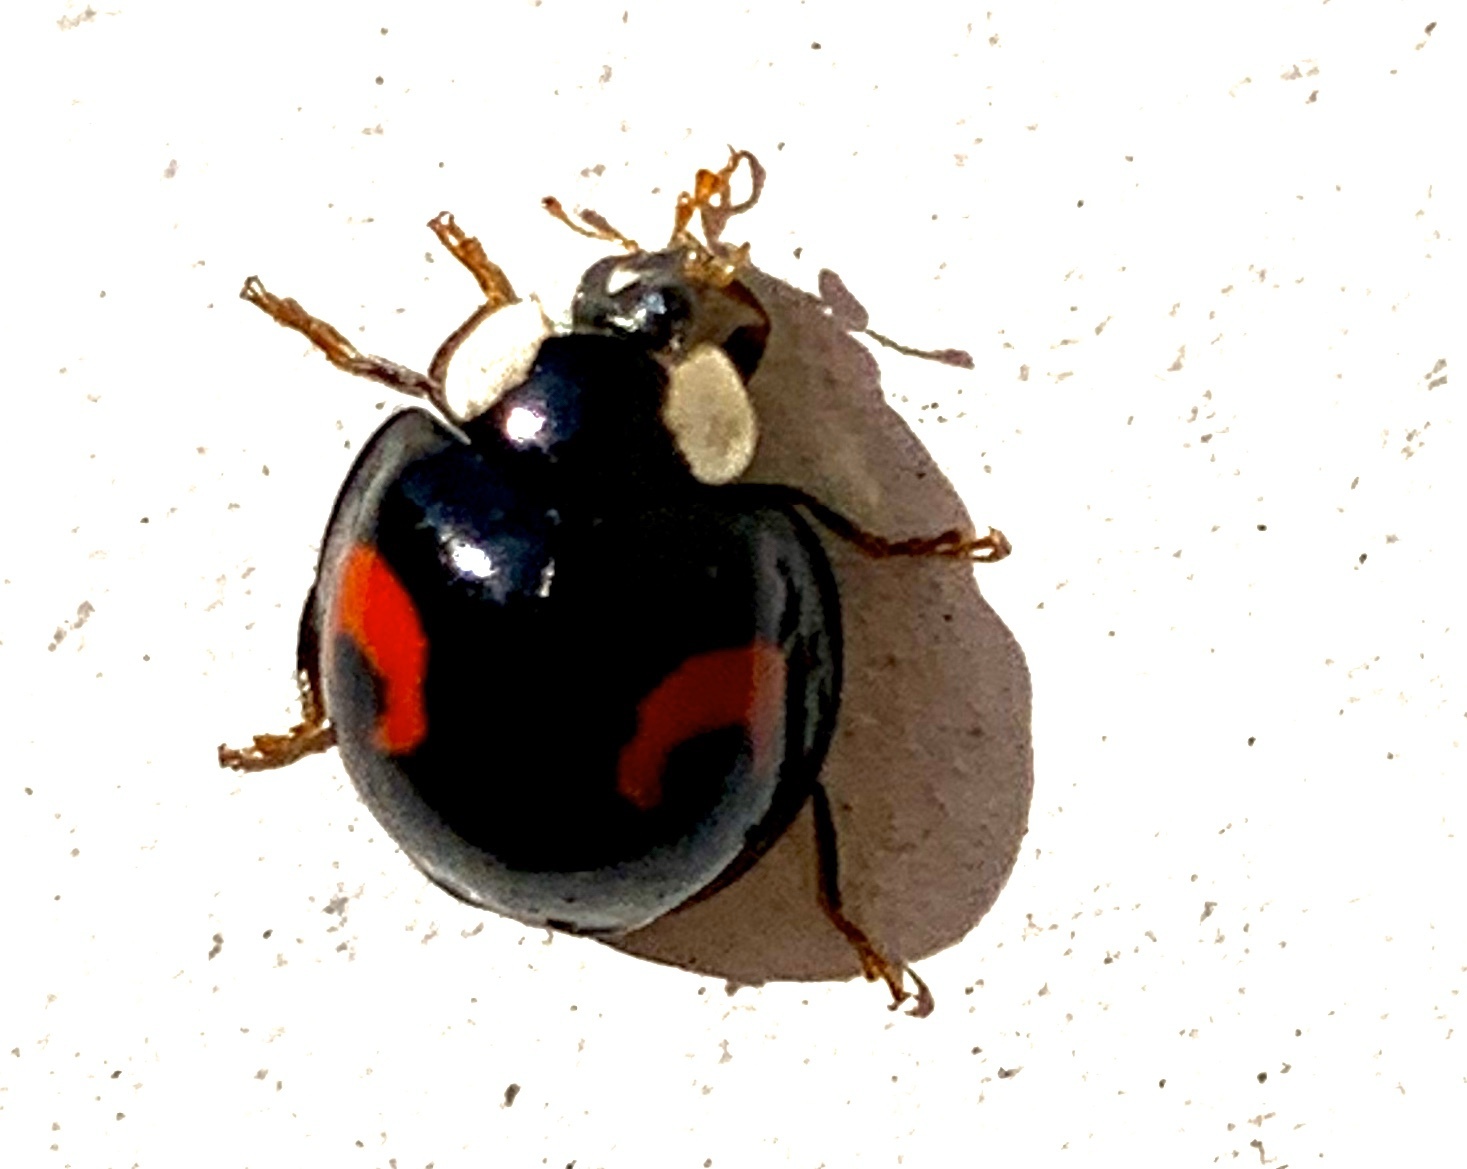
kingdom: Animalia
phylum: Arthropoda
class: Insecta
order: Coleoptera
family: Coccinellidae
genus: Harmonia
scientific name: Harmonia axyridis
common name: Harlequin ladybird
